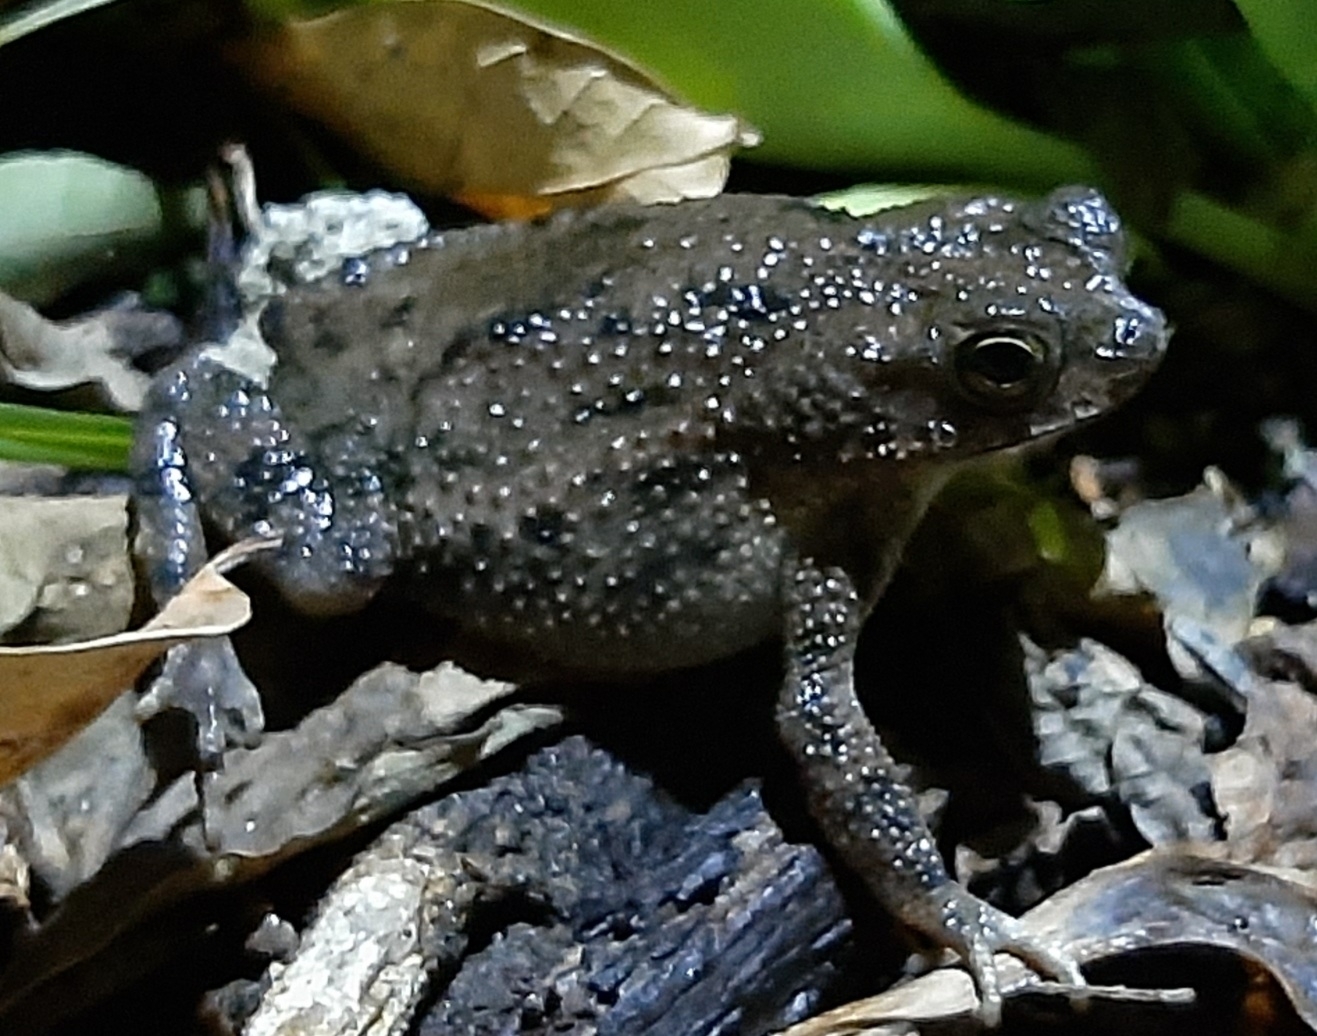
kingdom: Animalia
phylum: Chordata
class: Amphibia
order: Anura
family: Bufonidae
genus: Rhinella
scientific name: Rhinella humboldti
